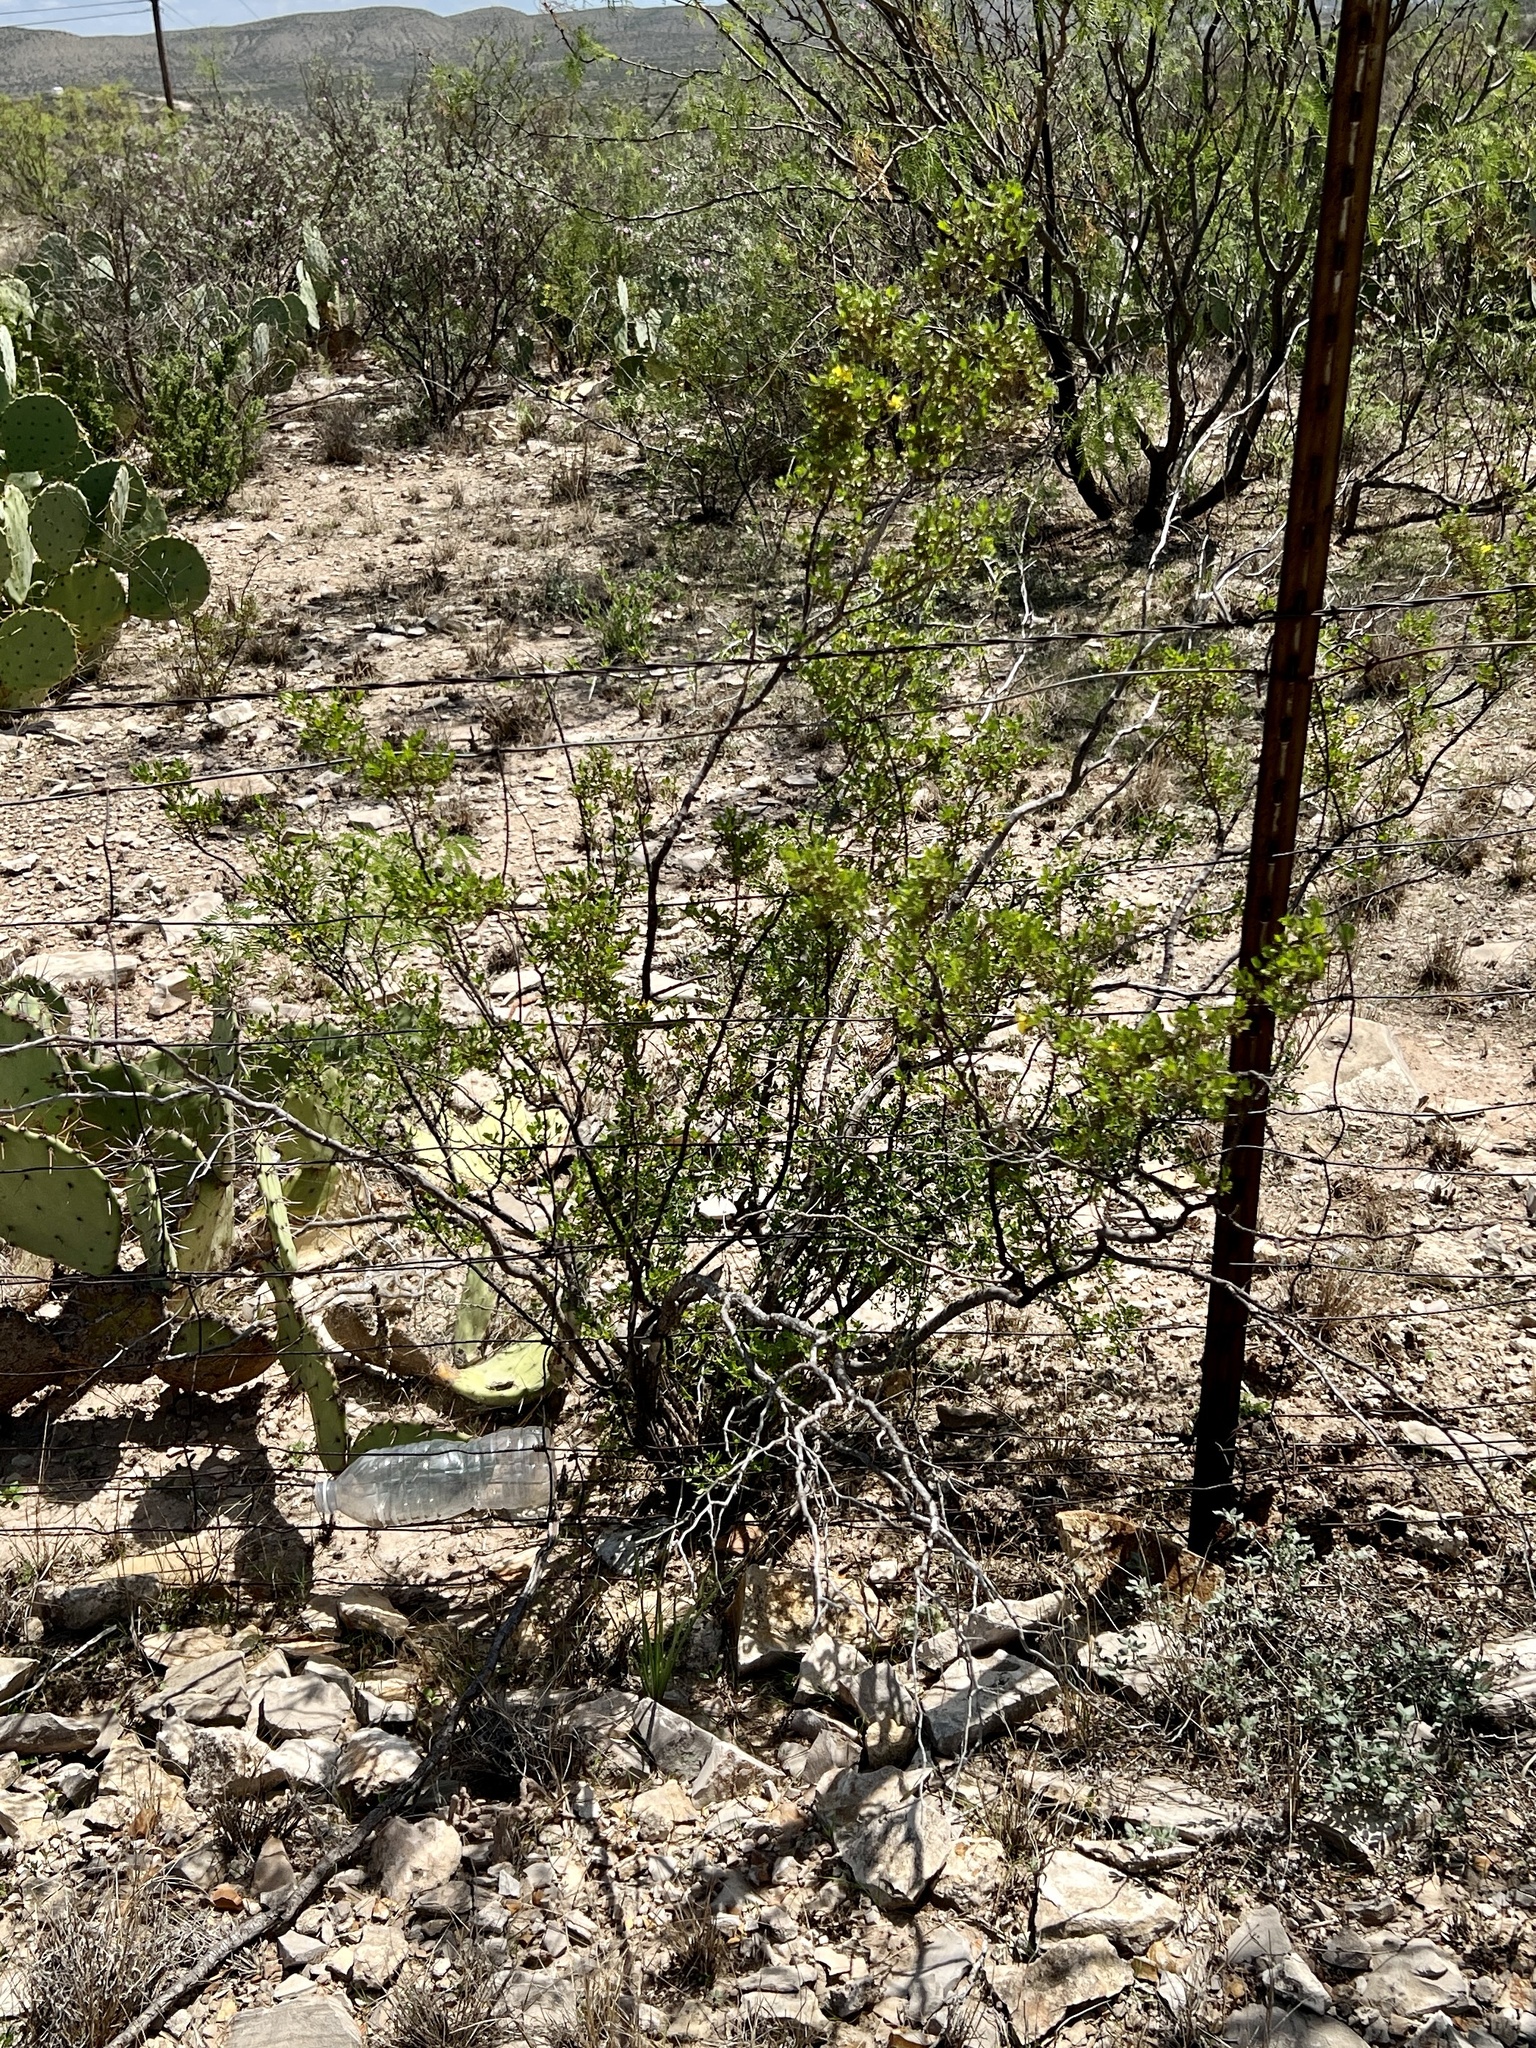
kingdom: Plantae
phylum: Tracheophyta
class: Magnoliopsida
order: Zygophyllales
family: Zygophyllaceae
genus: Larrea
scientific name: Larrea tridentata
